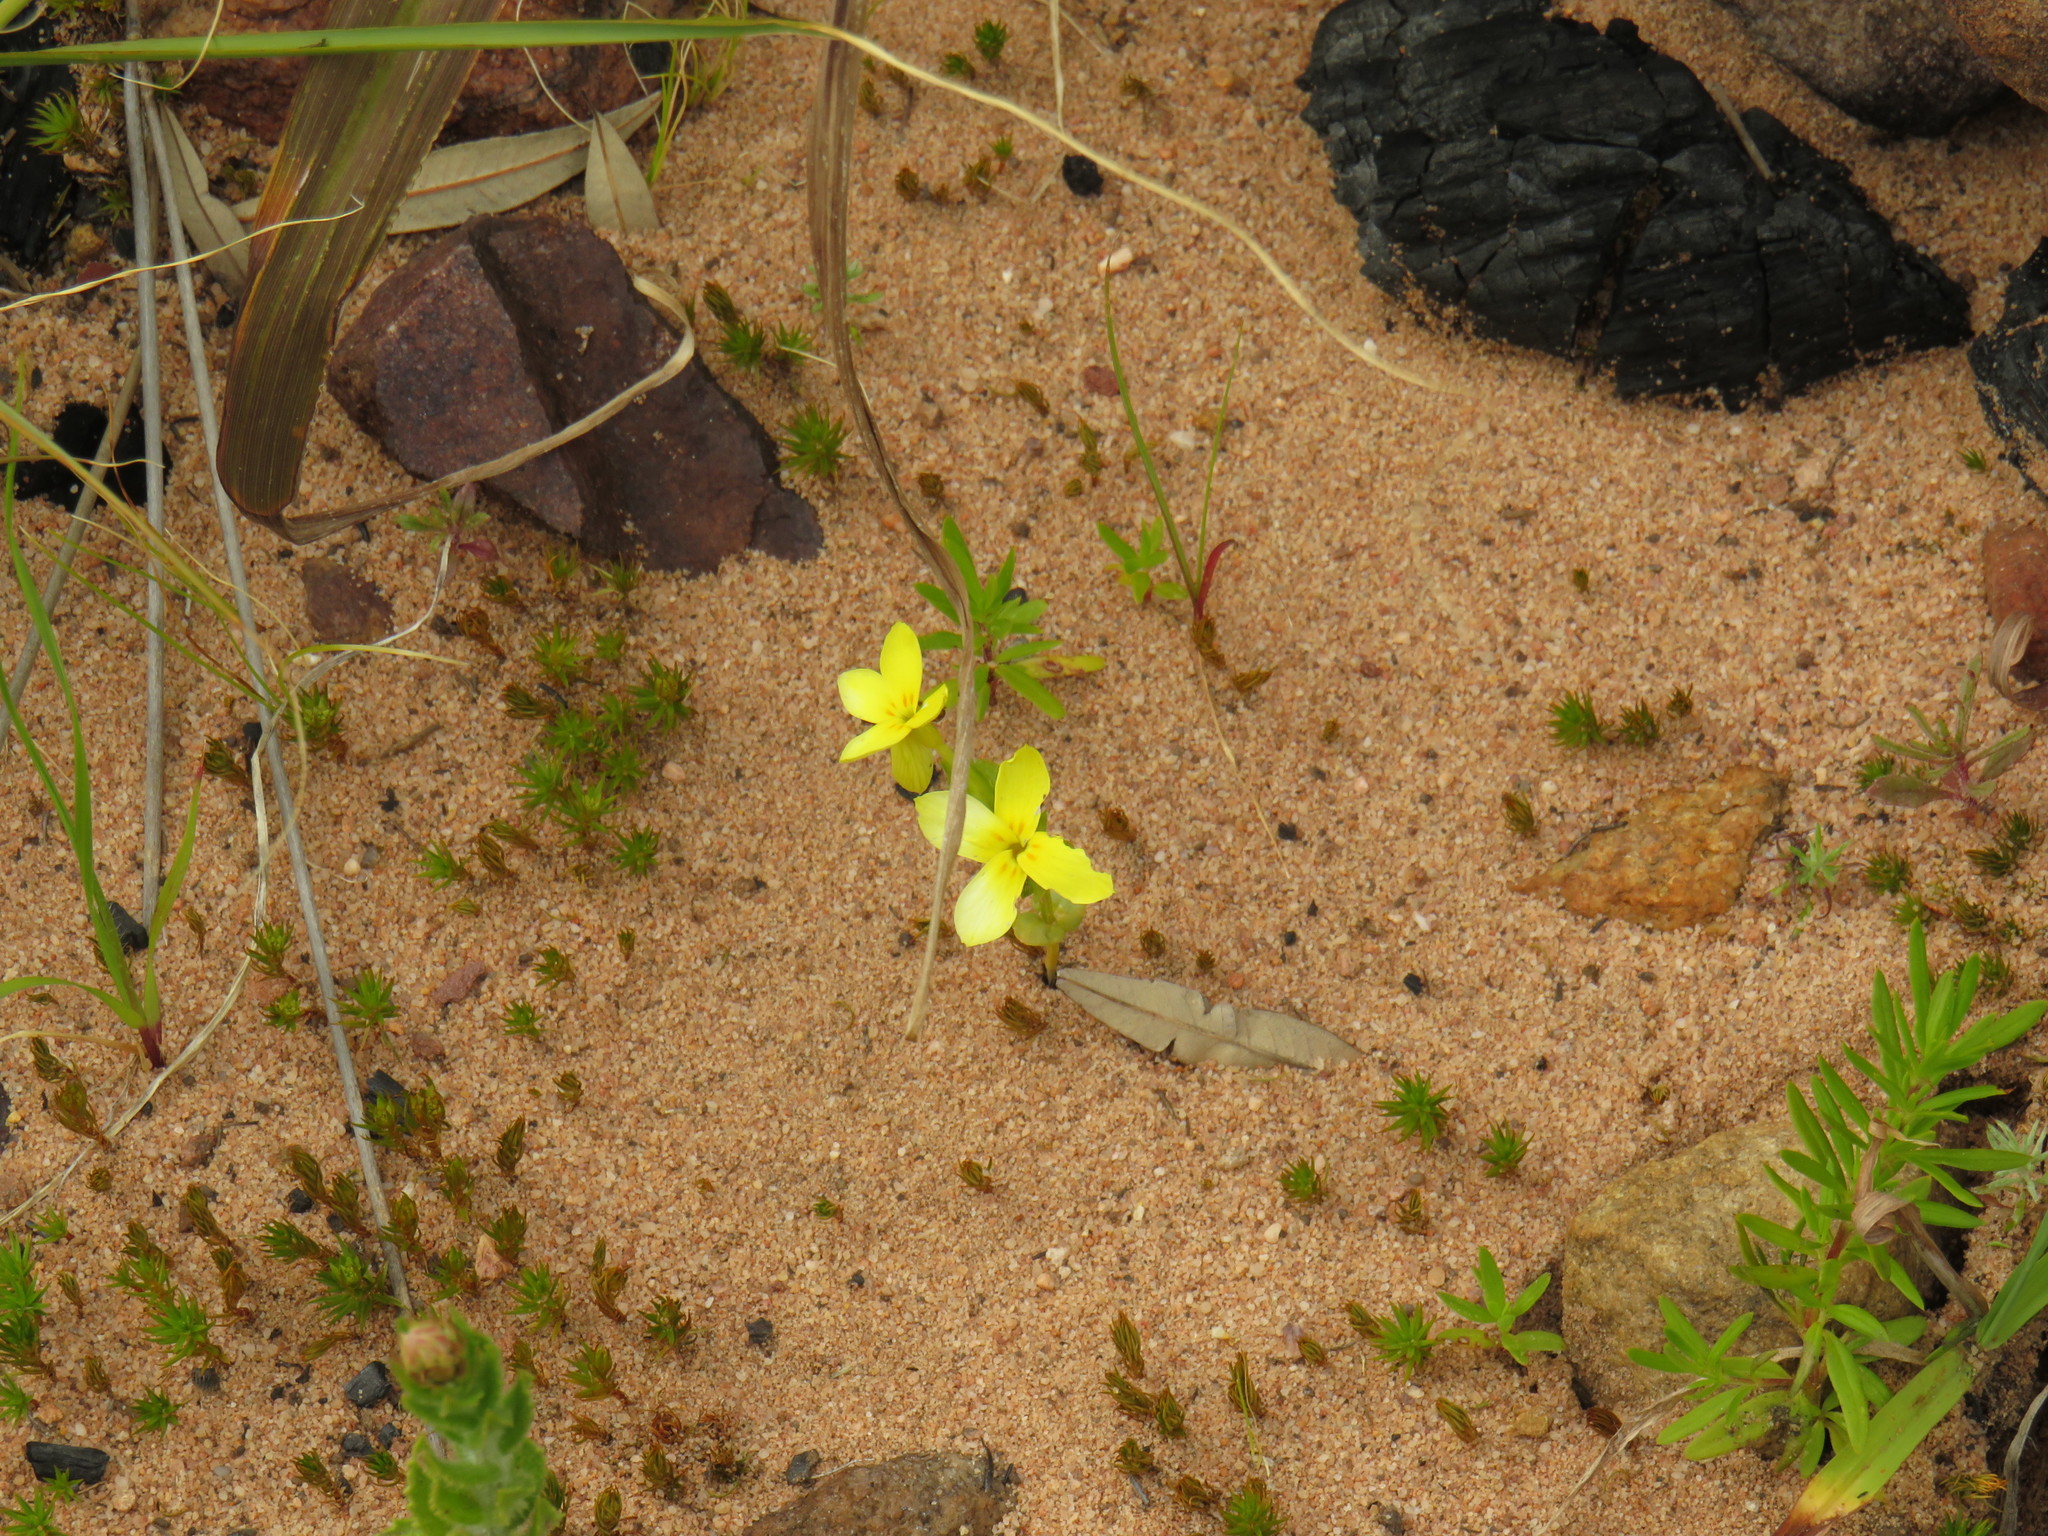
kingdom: Plantae
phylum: Tracheophyta
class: Magnoliopsida
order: Gentianales
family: Gentianaceae
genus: Sebaea
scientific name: Sebaea exacoides
